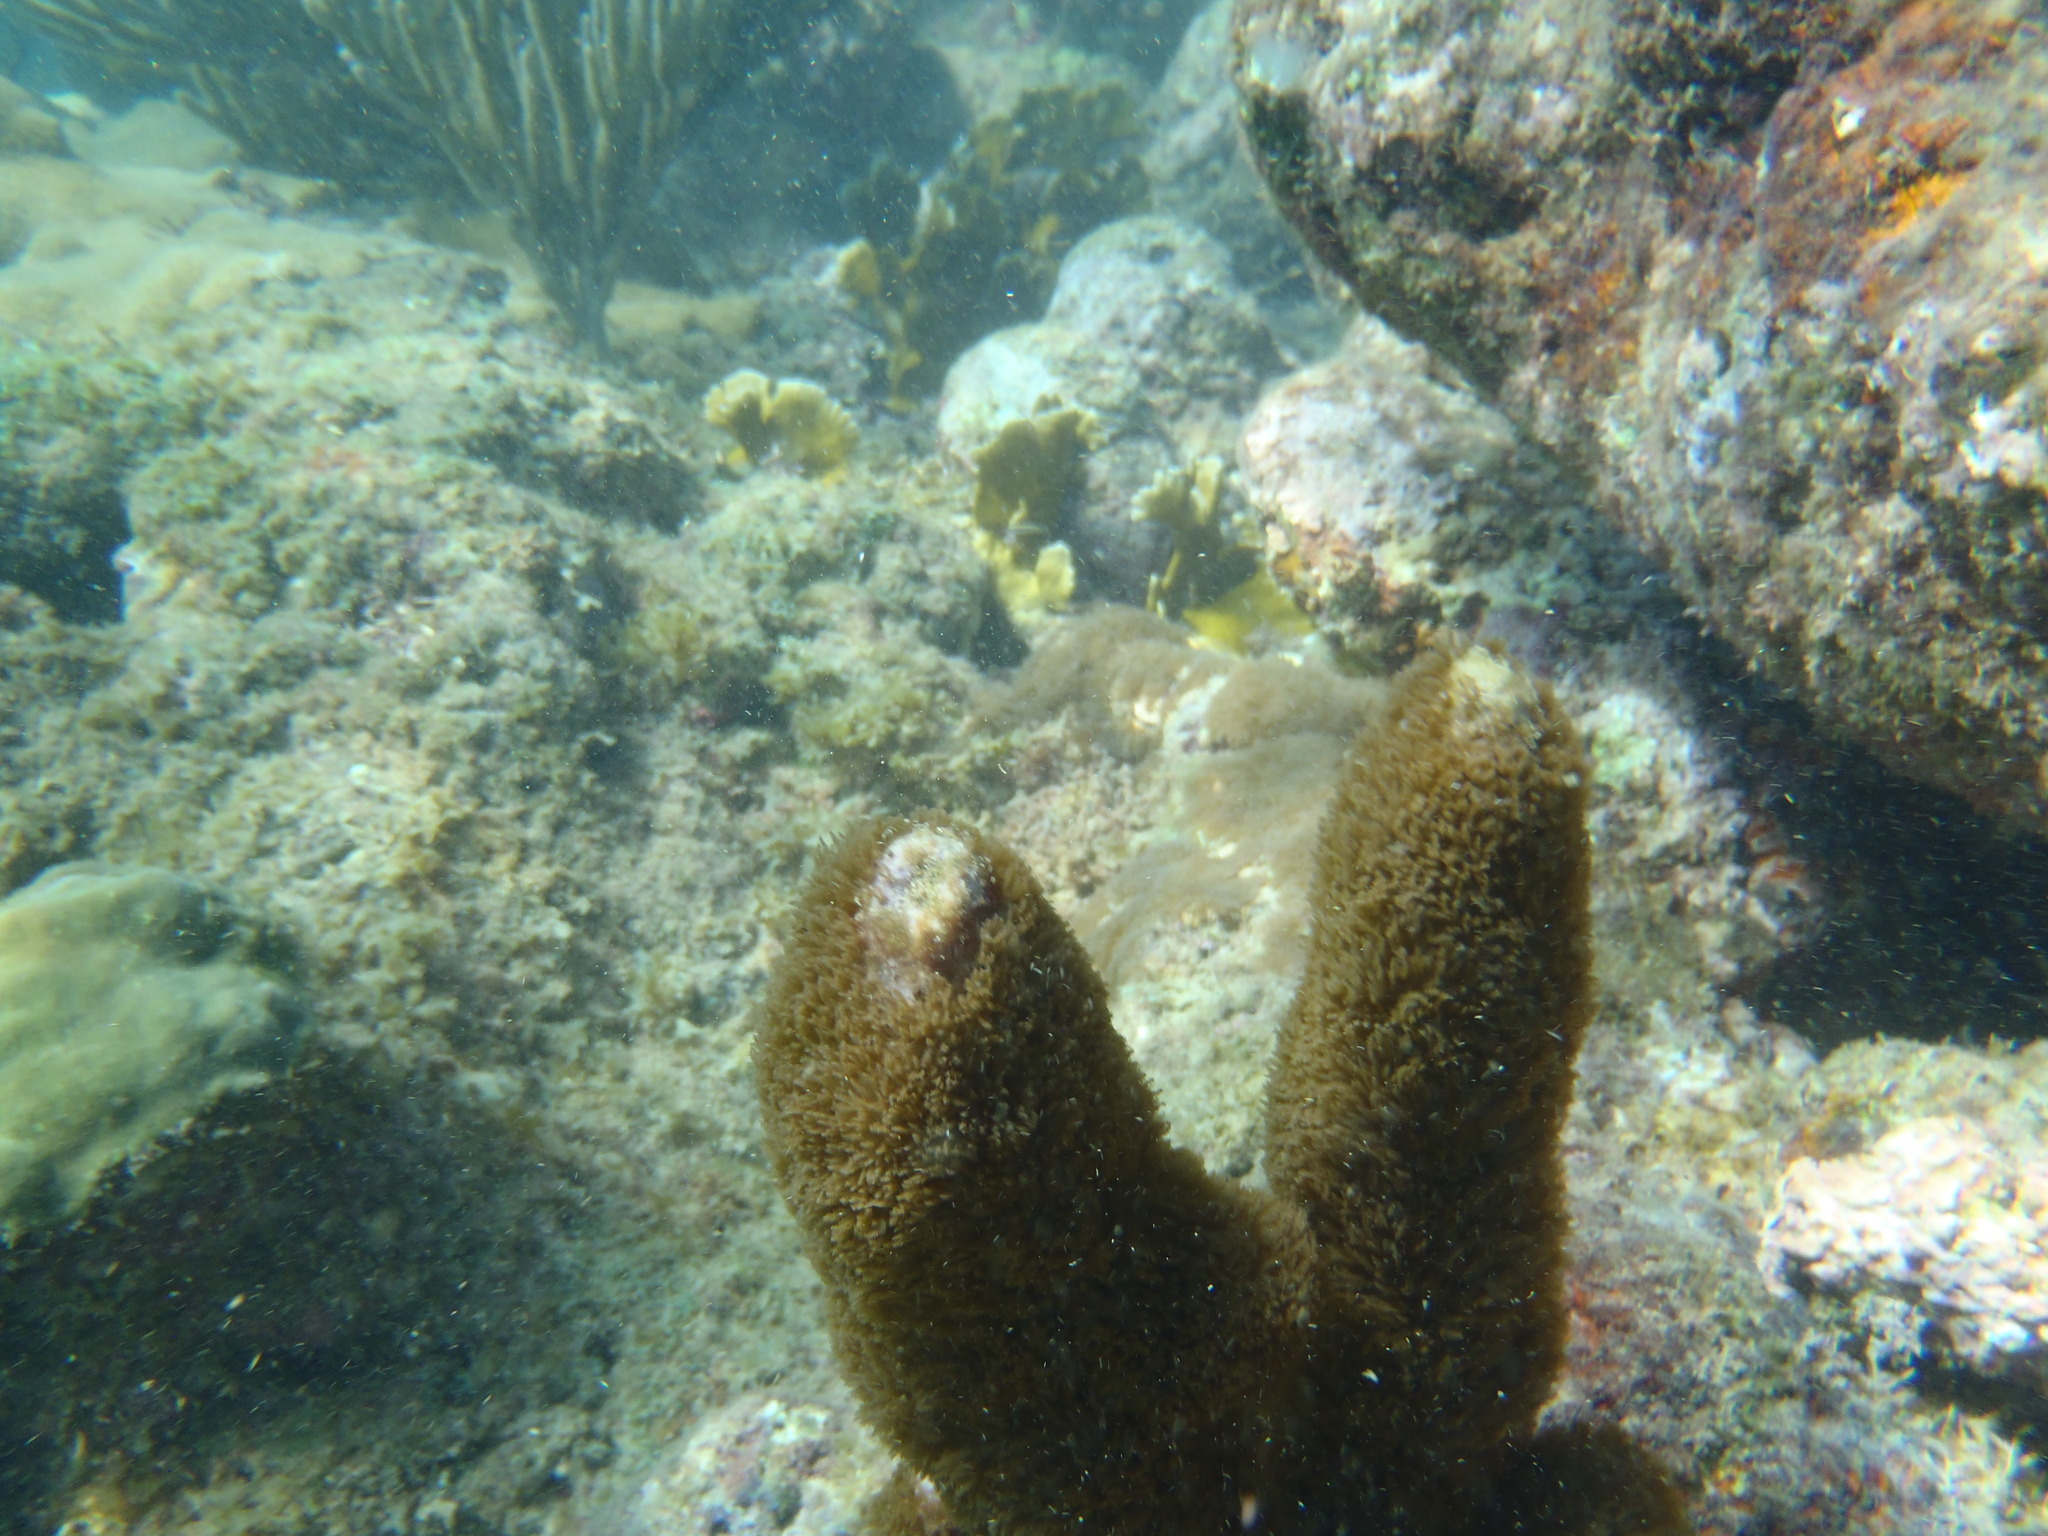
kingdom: Animalia
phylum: Cnidaria
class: Anthozoa
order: Scleralcyonacea
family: Briareidae
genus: Briareum
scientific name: Briareum asbestinum
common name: Corky sea finger
